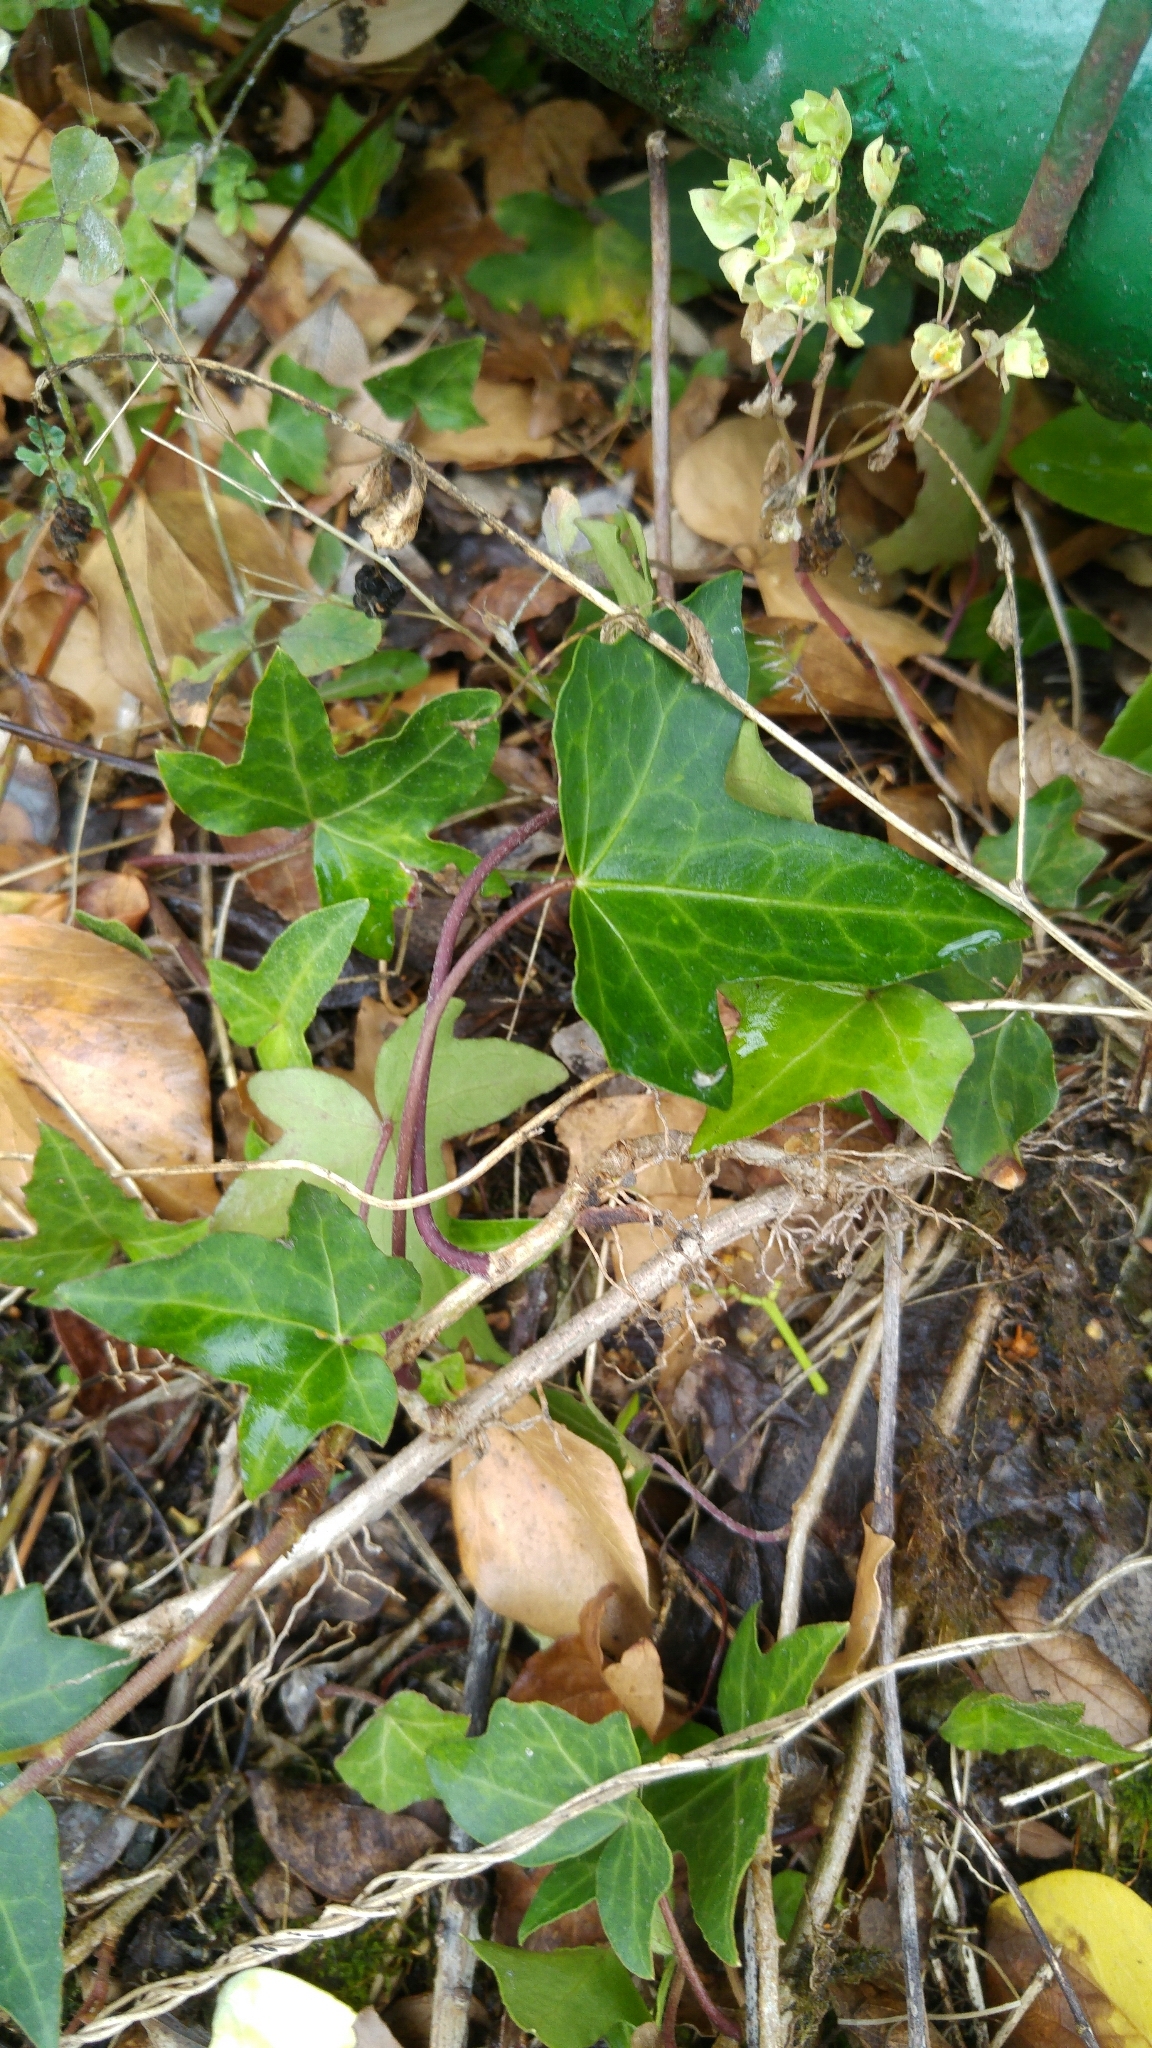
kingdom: Plantae
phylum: Tracheophyta
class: Magnoliopsida
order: Apiales
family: Araliaceae
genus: Hedera
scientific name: Hedera helix
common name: Ivy
